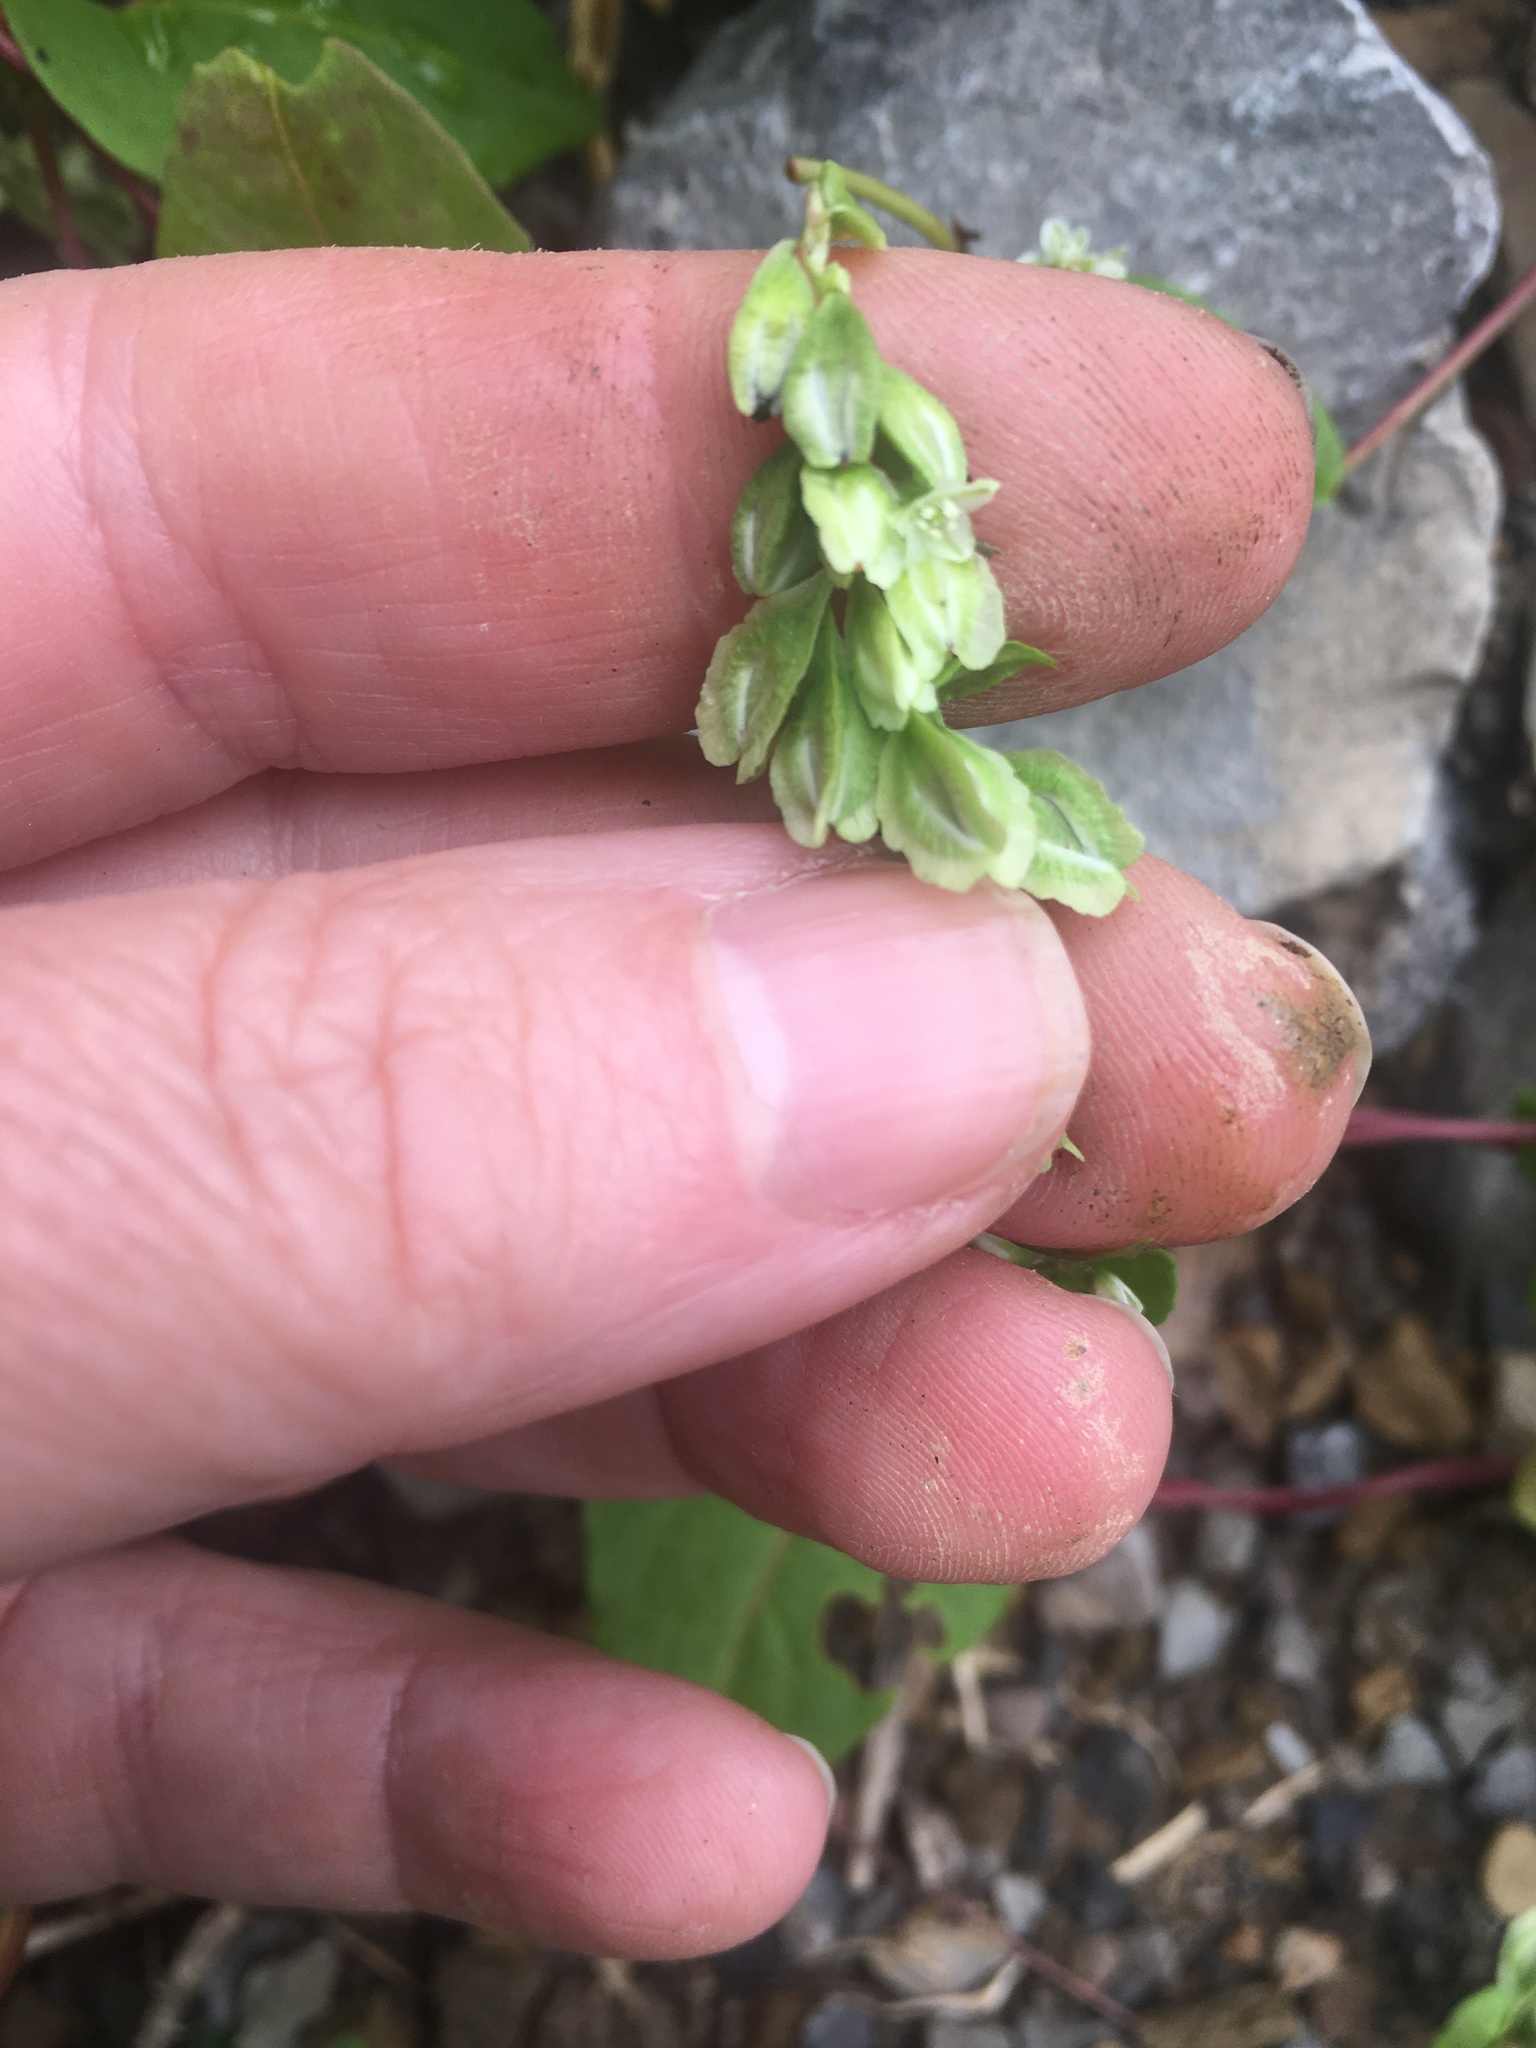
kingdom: Plantae
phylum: Tracheophyta
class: Magnoliopsida
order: Caryophyllales
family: Polygonaceae
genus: Fallopia
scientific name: Fallopia scandens
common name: Climbing false buckwheat
